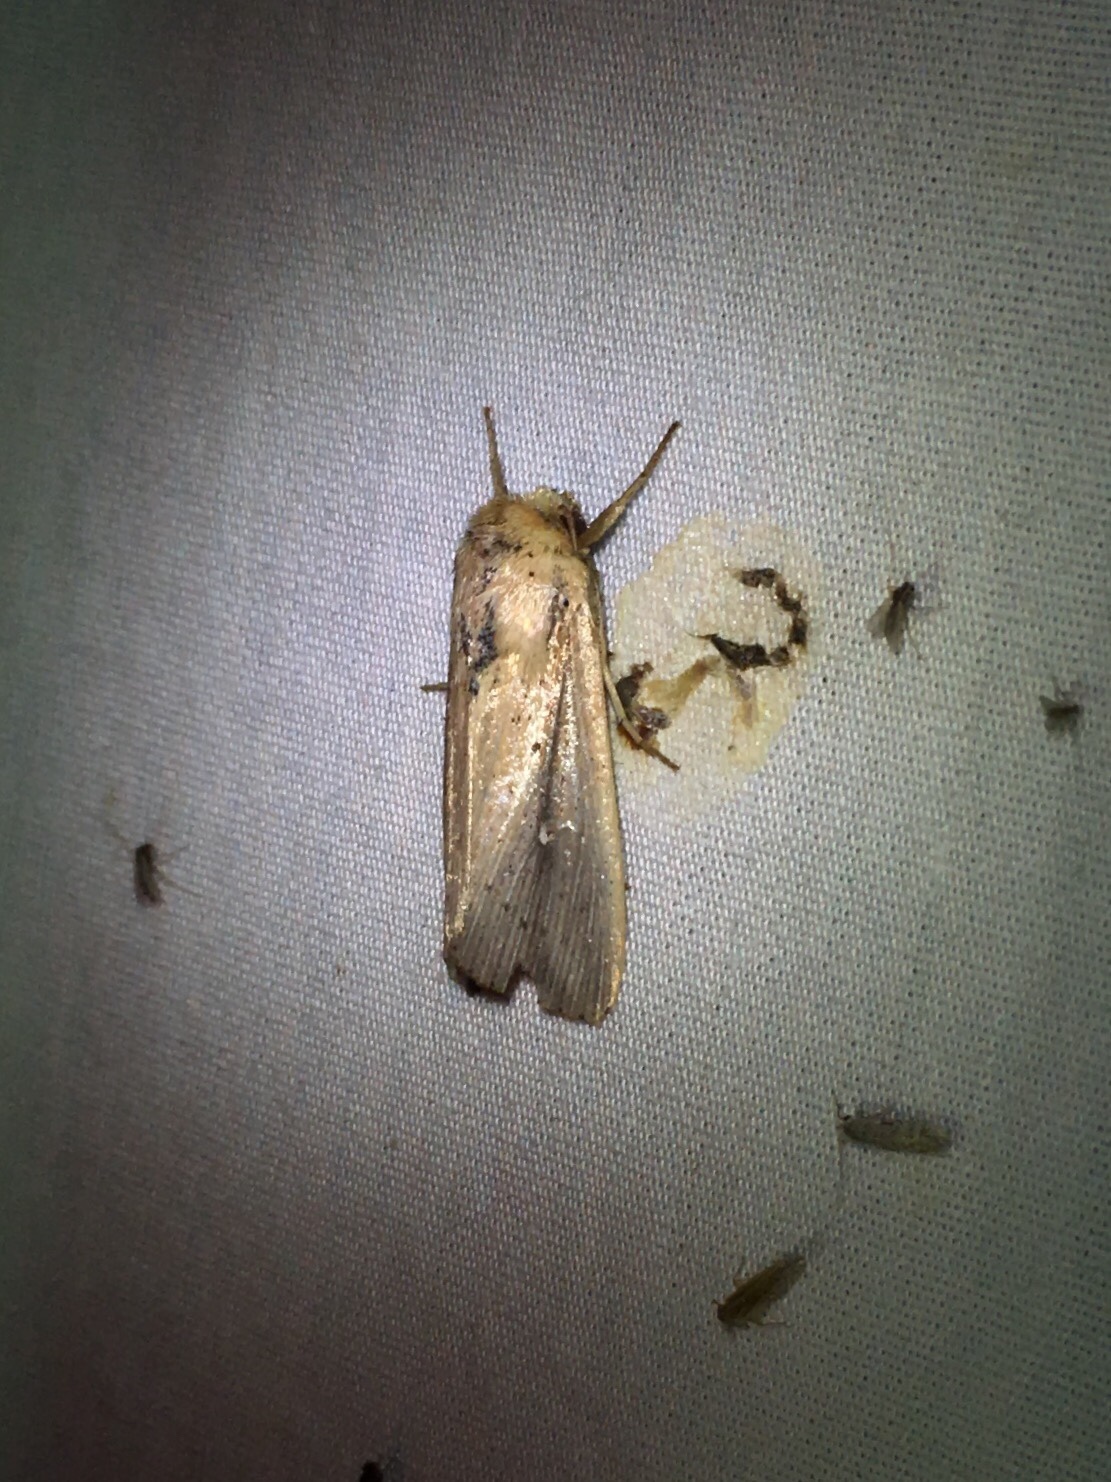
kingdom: Animalia
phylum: Arthropoda
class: Insecta
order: Lepidoptera
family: Noctuidae
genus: Leucania
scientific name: Leucania incognita
